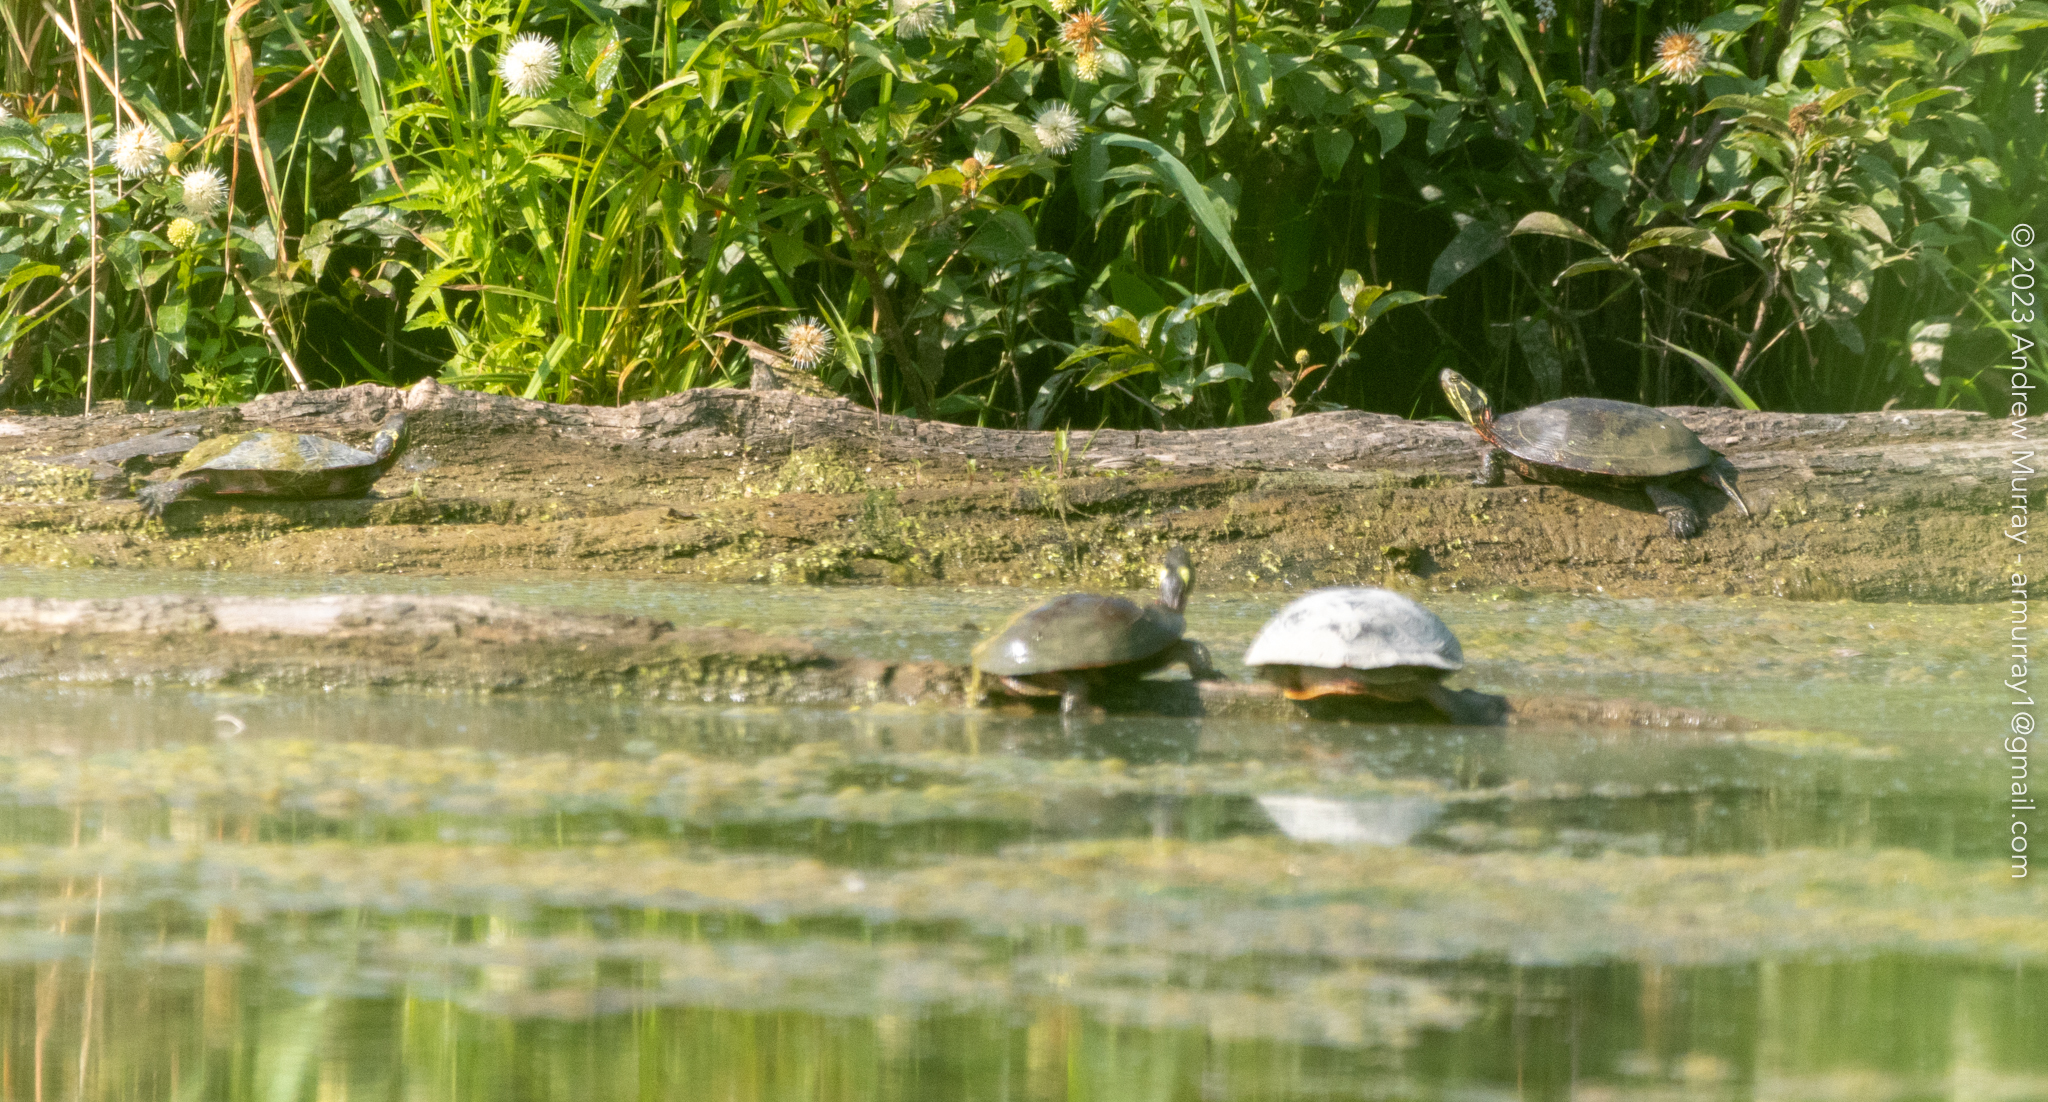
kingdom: Animalia
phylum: Chordata
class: Testudines
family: Emydidae
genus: Chrysemys
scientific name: Chrysemys picta
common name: Painted turtle
